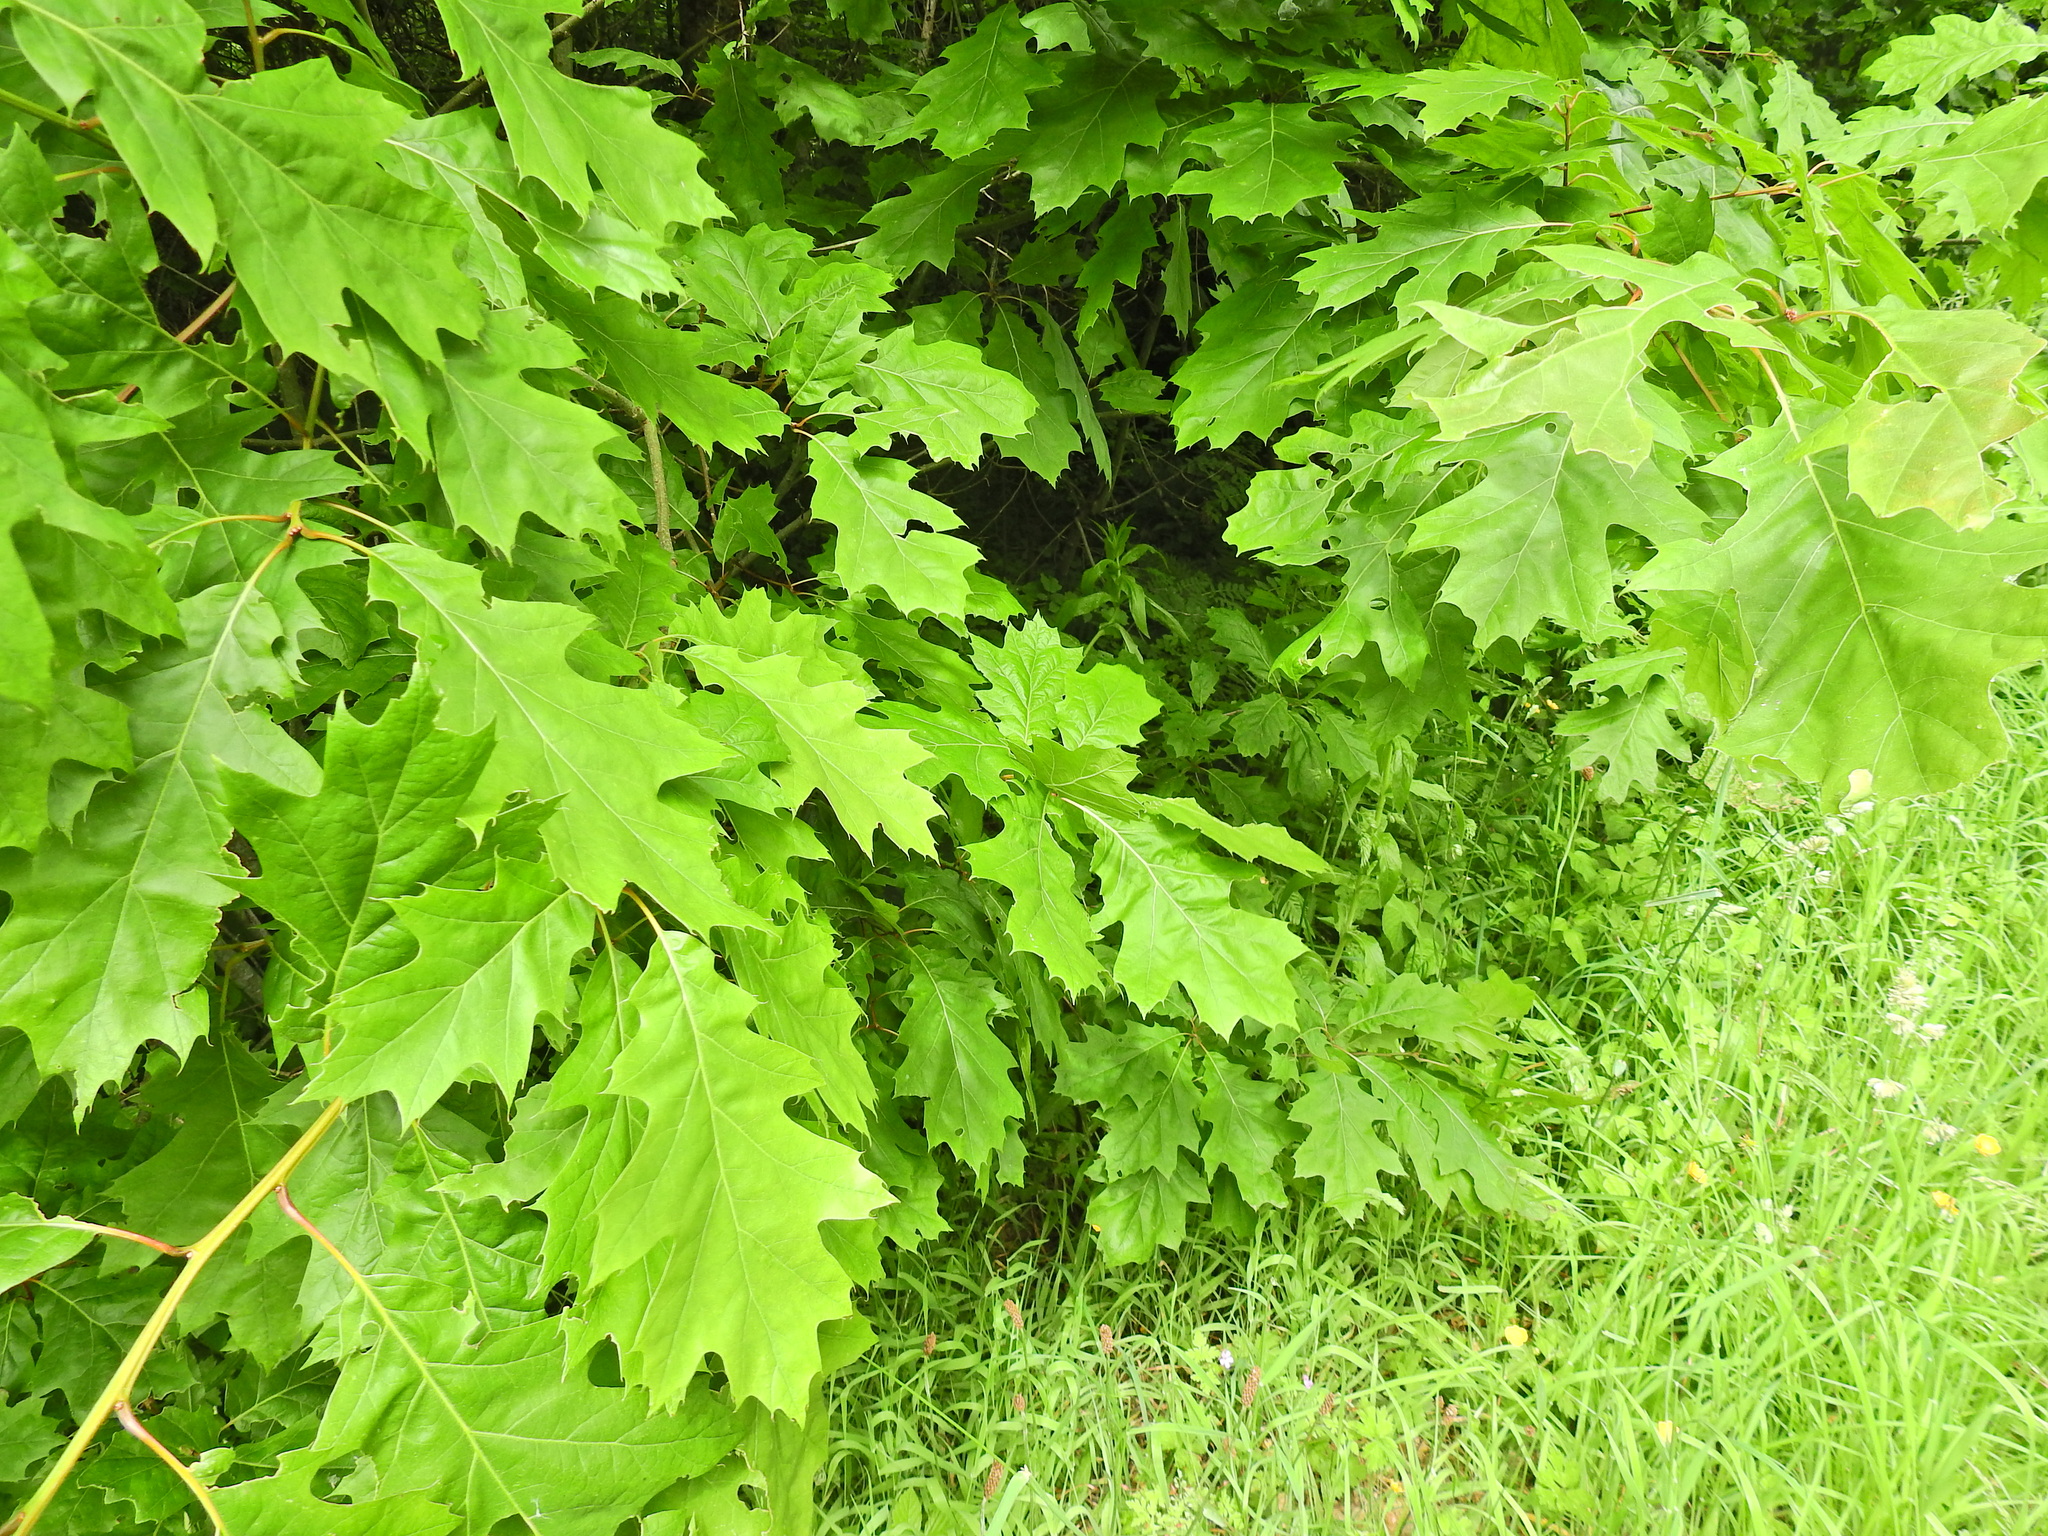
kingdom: Plantae
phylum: Tracheophyta
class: Magnoliopsida
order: Fagales
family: Fagaceae
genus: Quercus
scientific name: Quercus rubra
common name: Red oak
